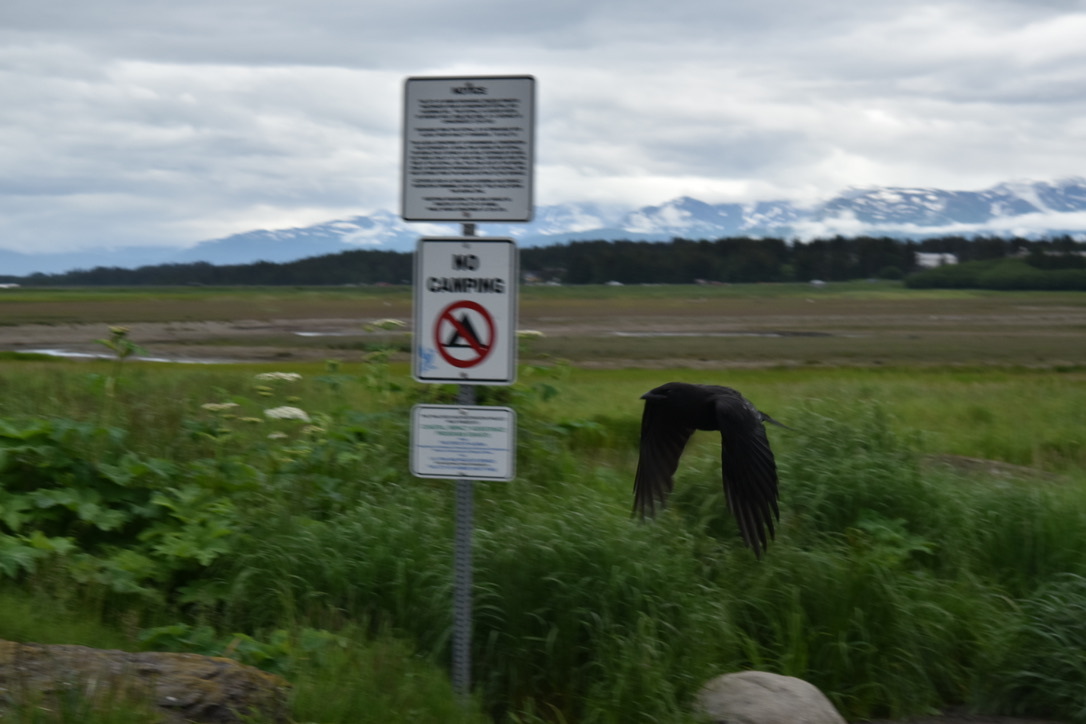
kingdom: Animalia
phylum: Chordata
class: Aves
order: Passeriformes
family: Corvidae
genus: Corvus
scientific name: Corvus brachyrhynchos
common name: American crow
